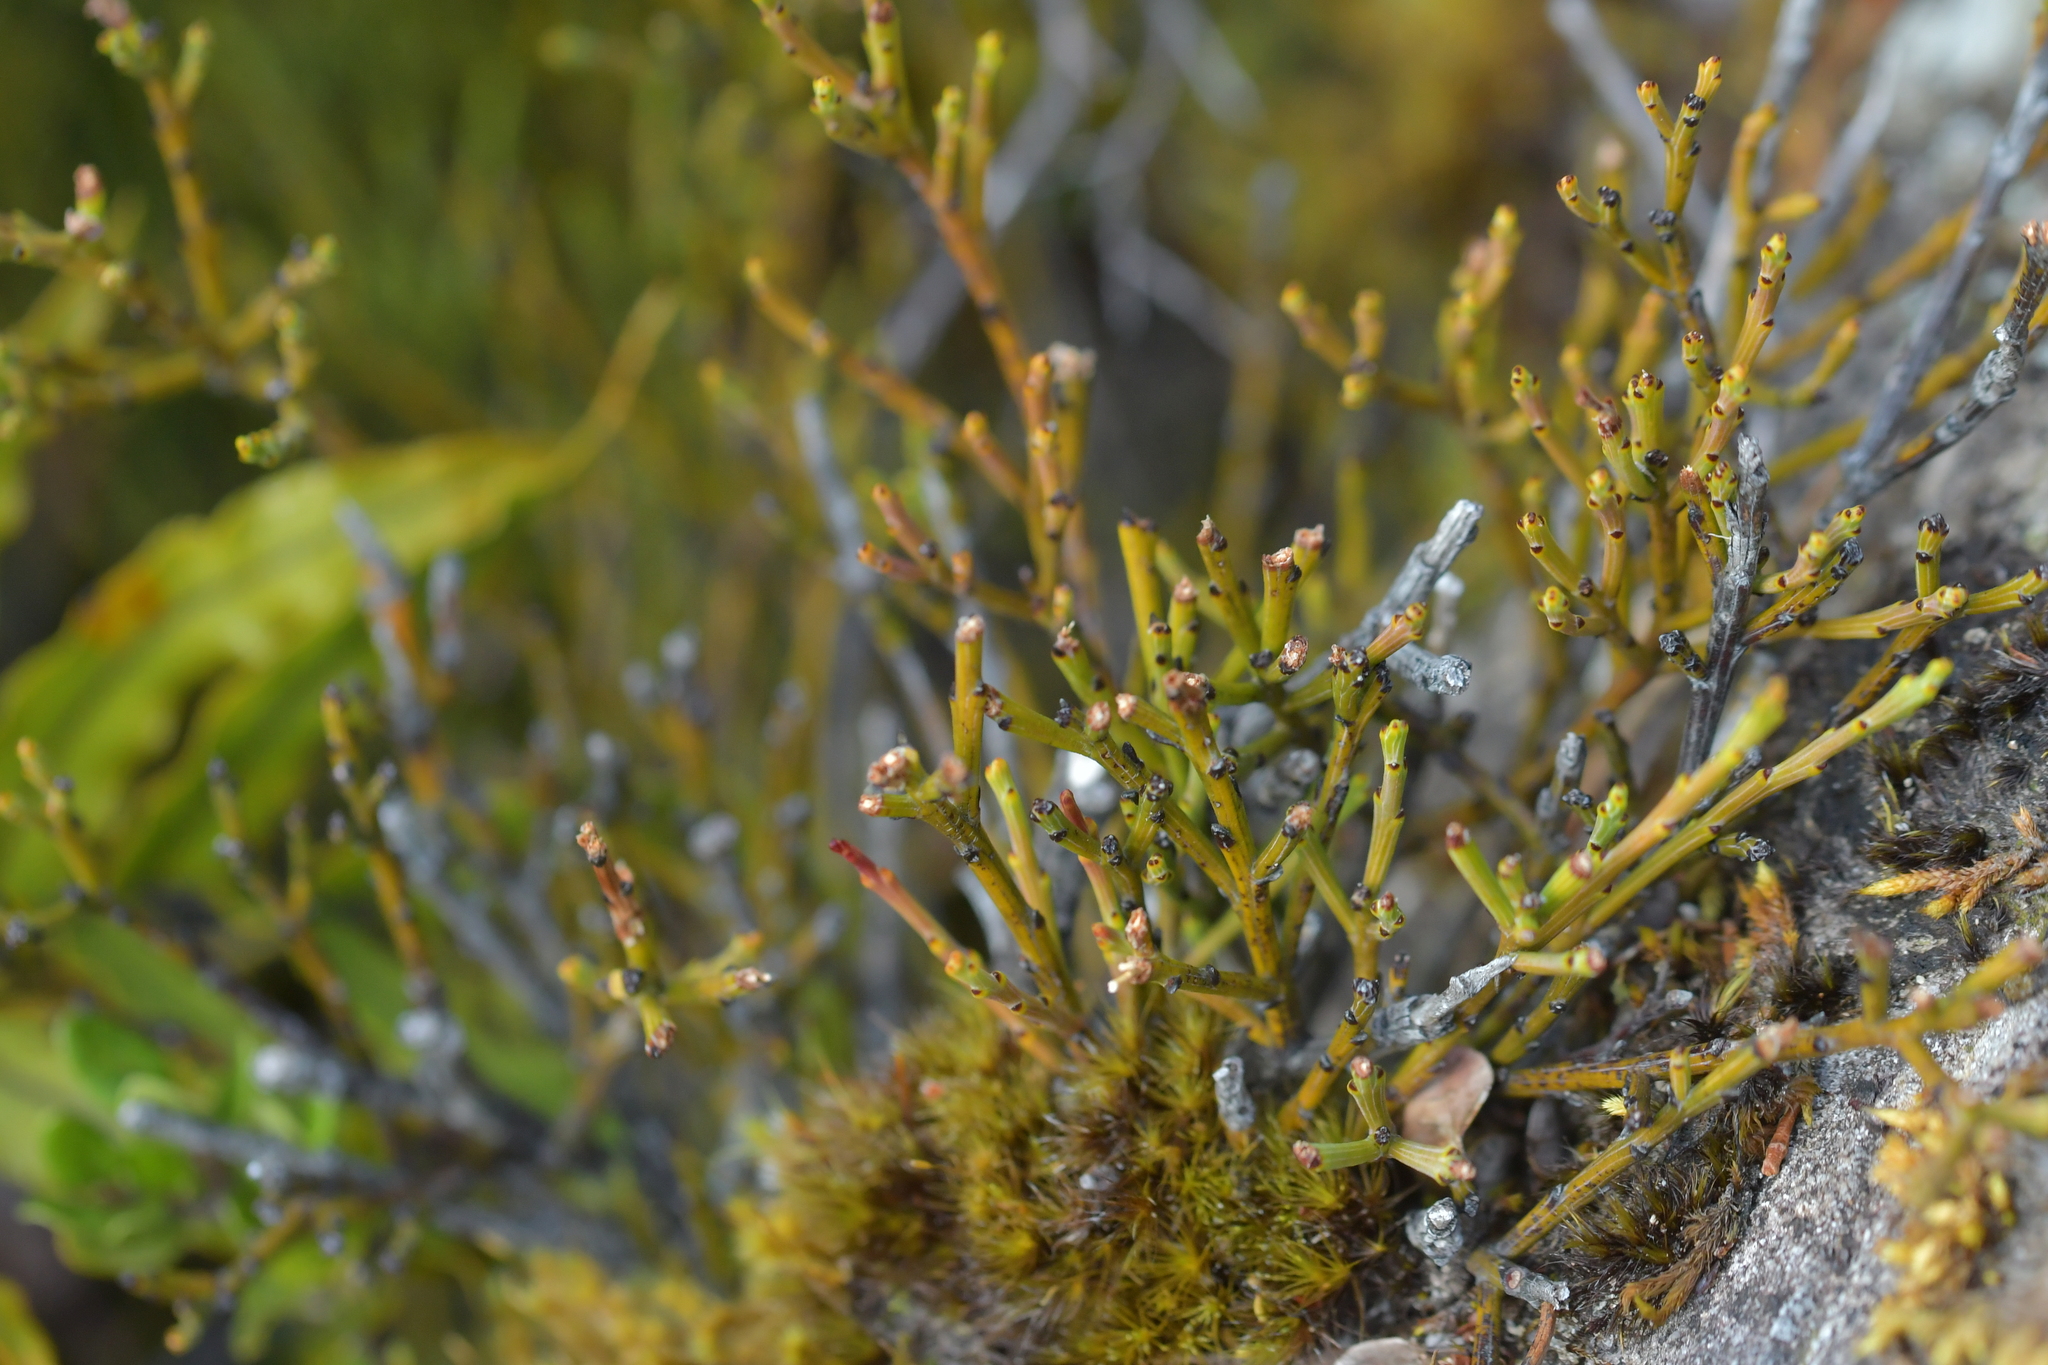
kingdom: Plantae
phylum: Tracheophyta
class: Magnoliopsida
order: Santalales
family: Santalaceae
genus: Exocarpos
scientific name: Exocarpos bidwillii
